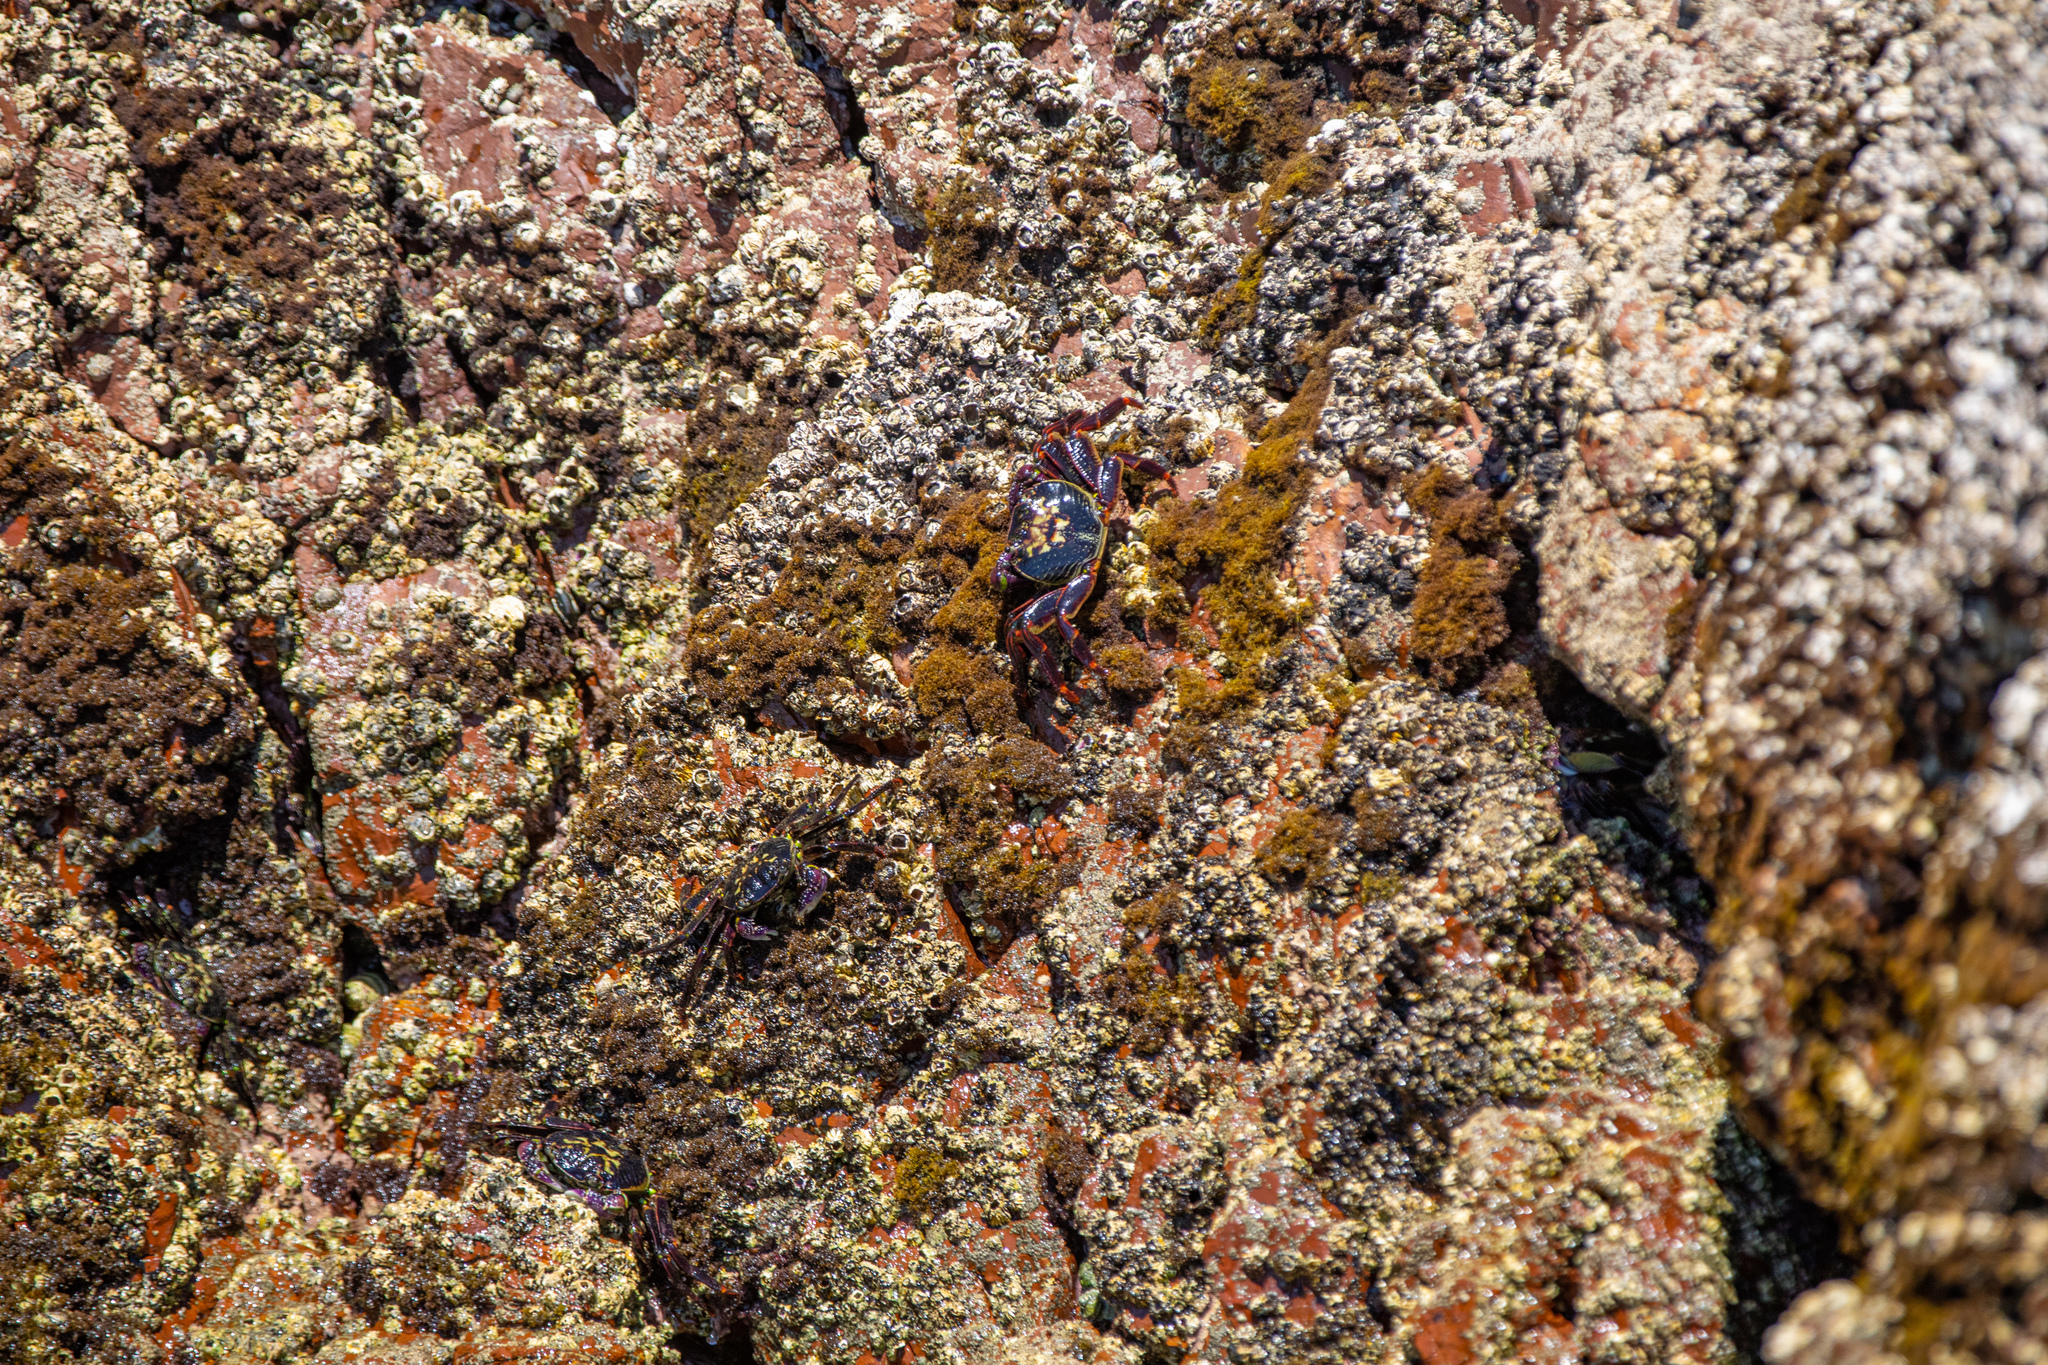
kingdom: Animalia
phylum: Arthropoda
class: Malacostraca
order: Decapoda
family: Grapsidae
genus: Leptograpsus
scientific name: Leptograpsus variegatus
